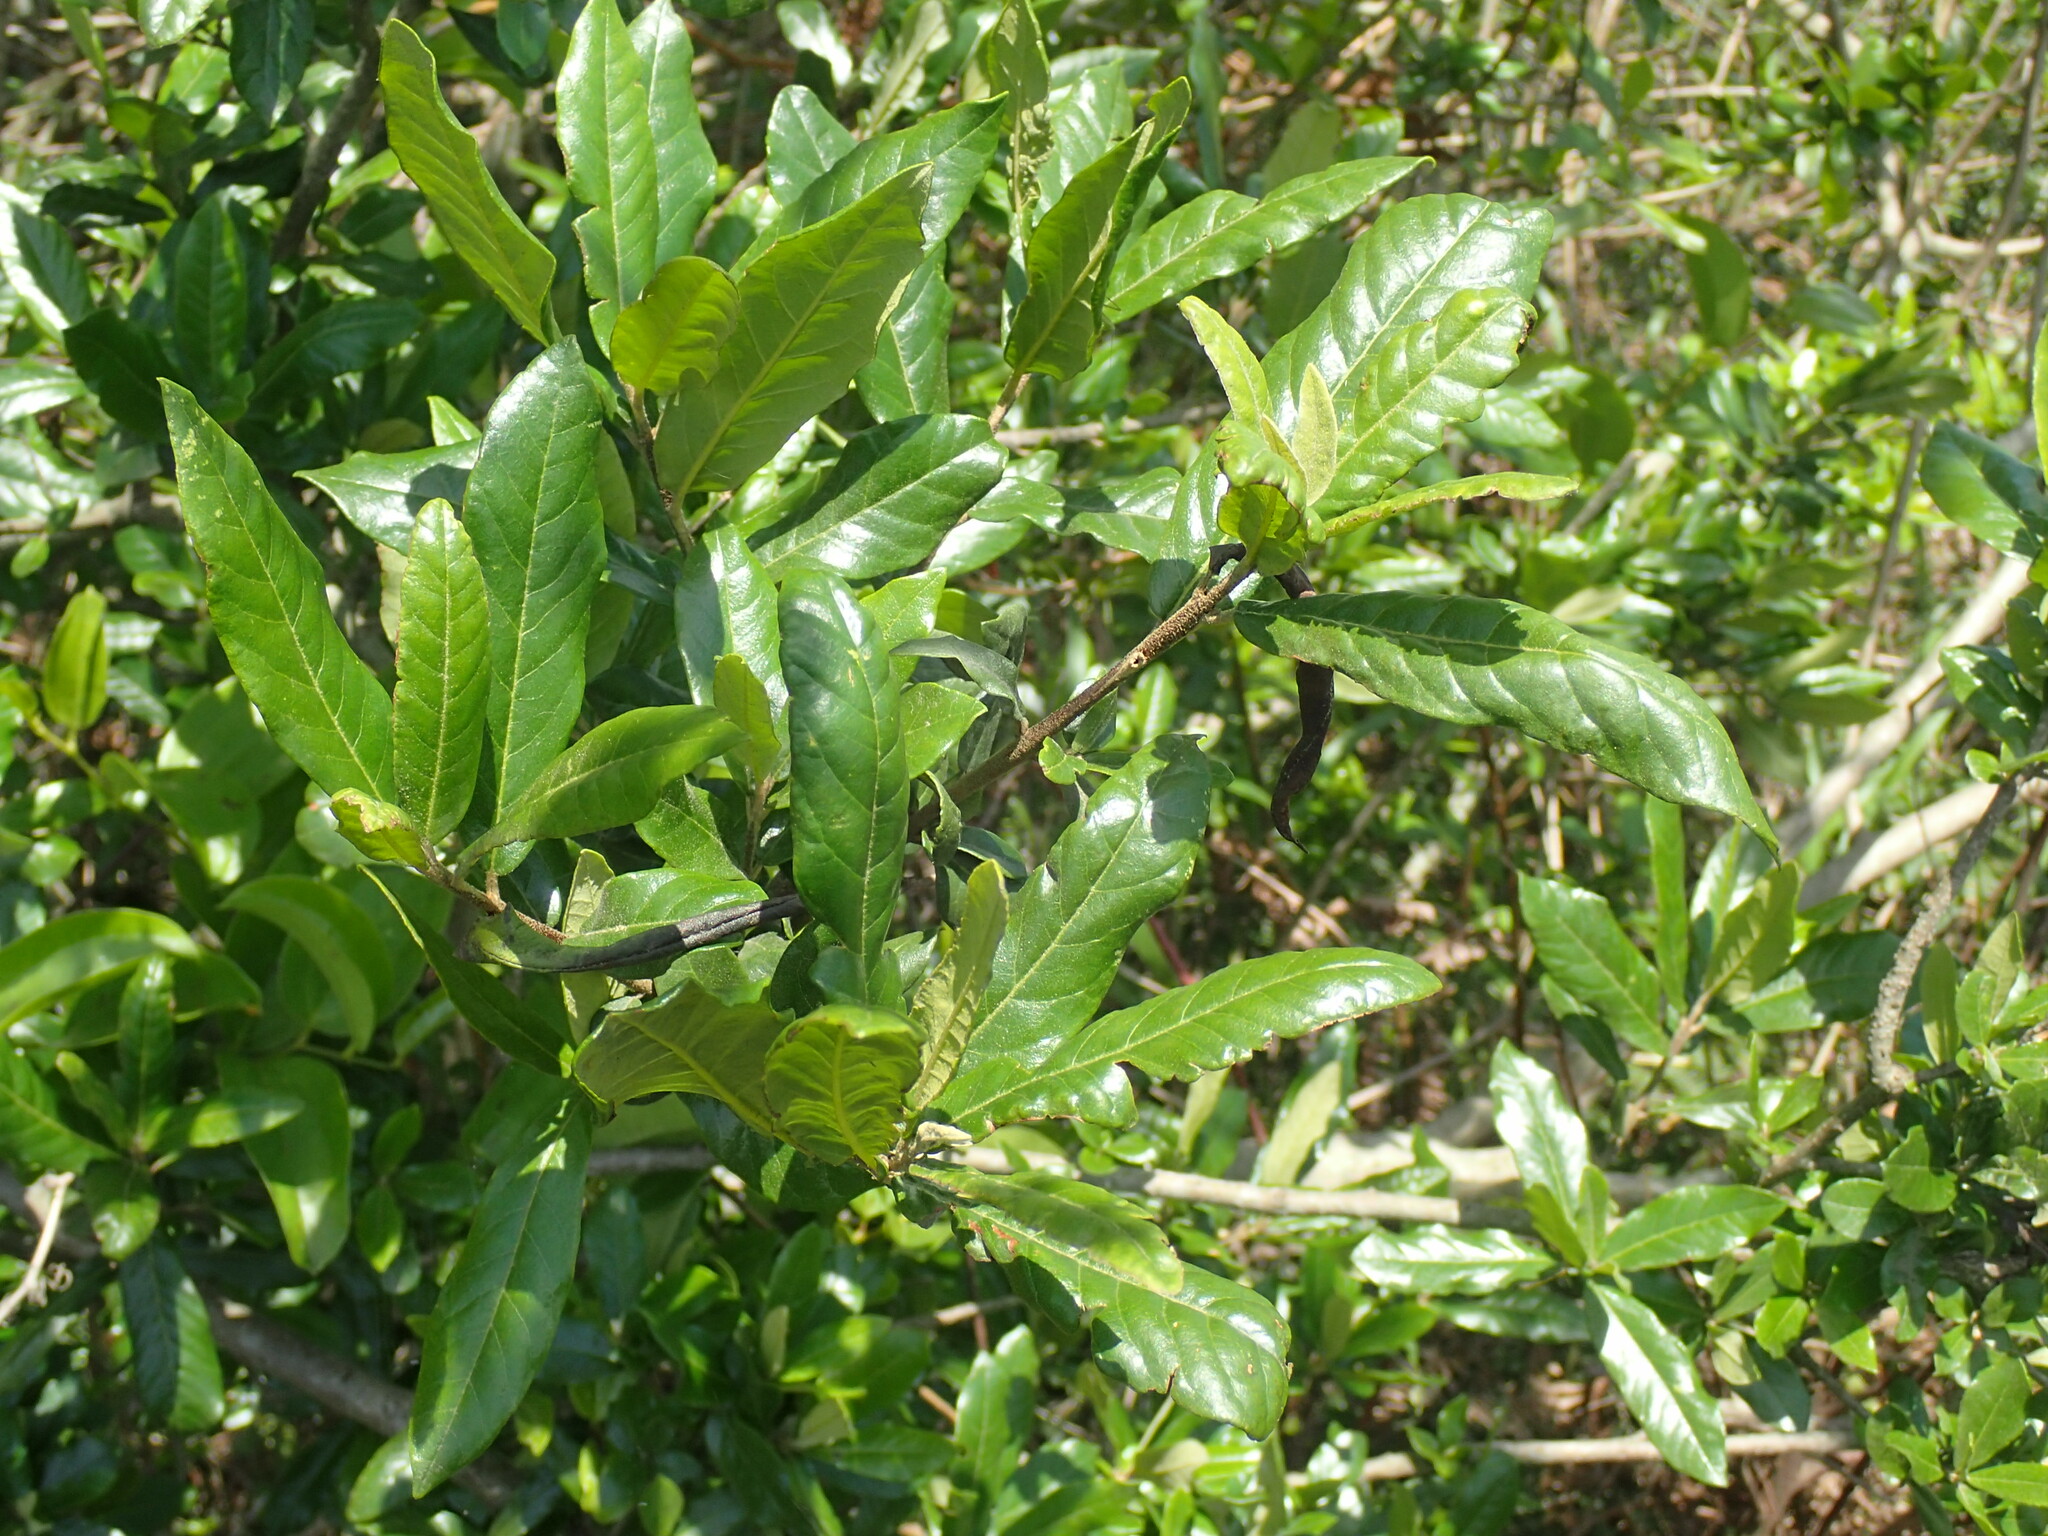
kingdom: Plantae
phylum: Tracheophyta
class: Magnoliopsida
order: Lamiales
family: Stilbaceae
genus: Anastrabe
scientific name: Anastrabe integerrima
